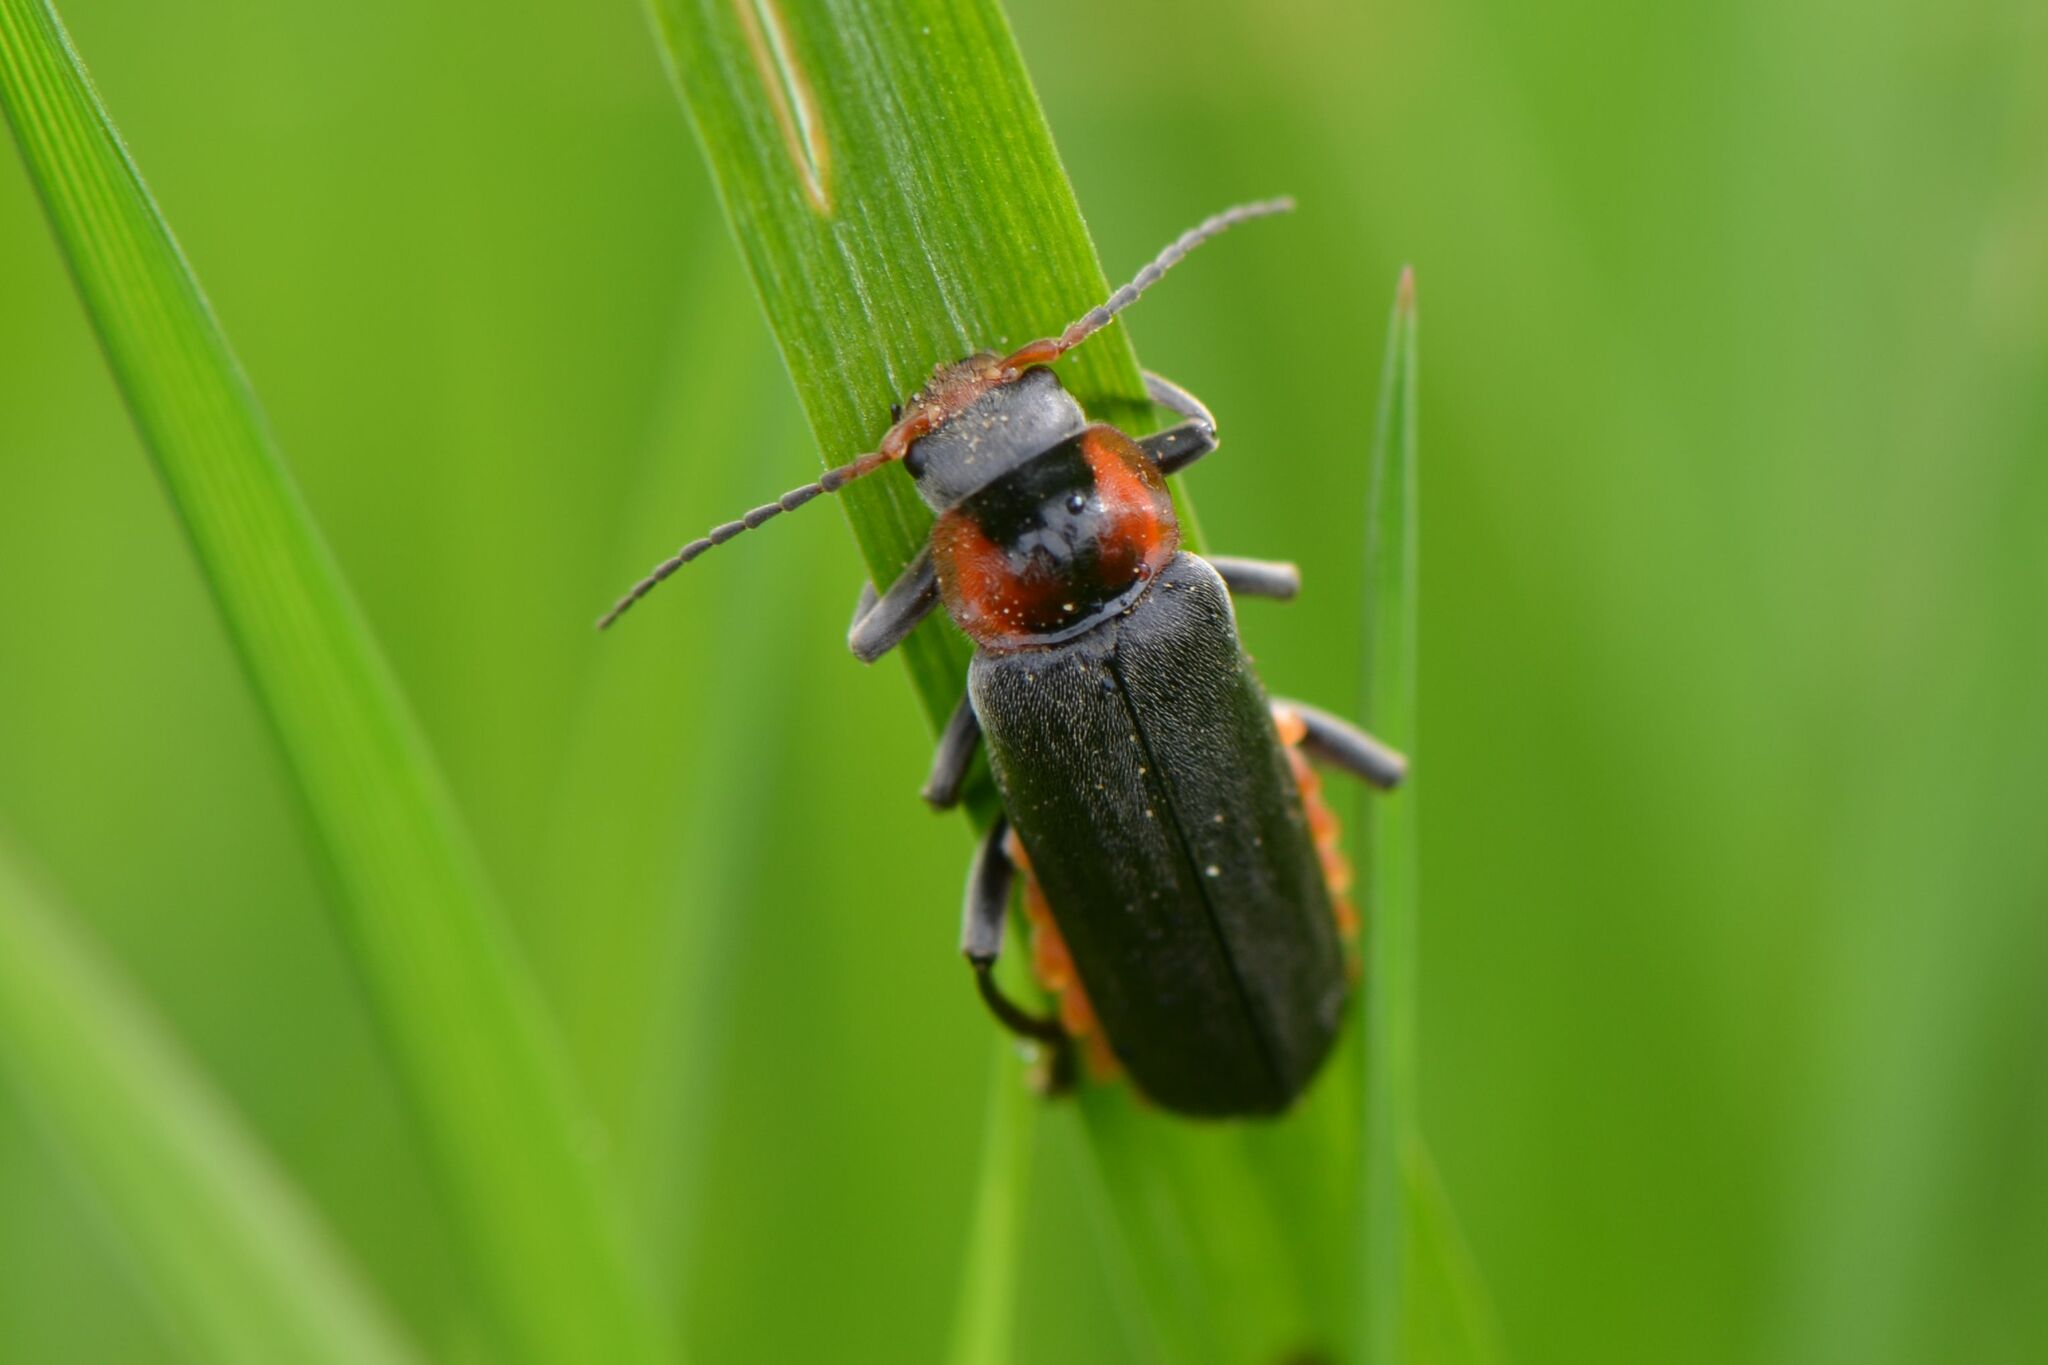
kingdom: Animalia
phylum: Arthropoda
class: Insecta
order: Coleoptera
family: Cantharidae
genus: Cantharis
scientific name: Cantharis fusca
